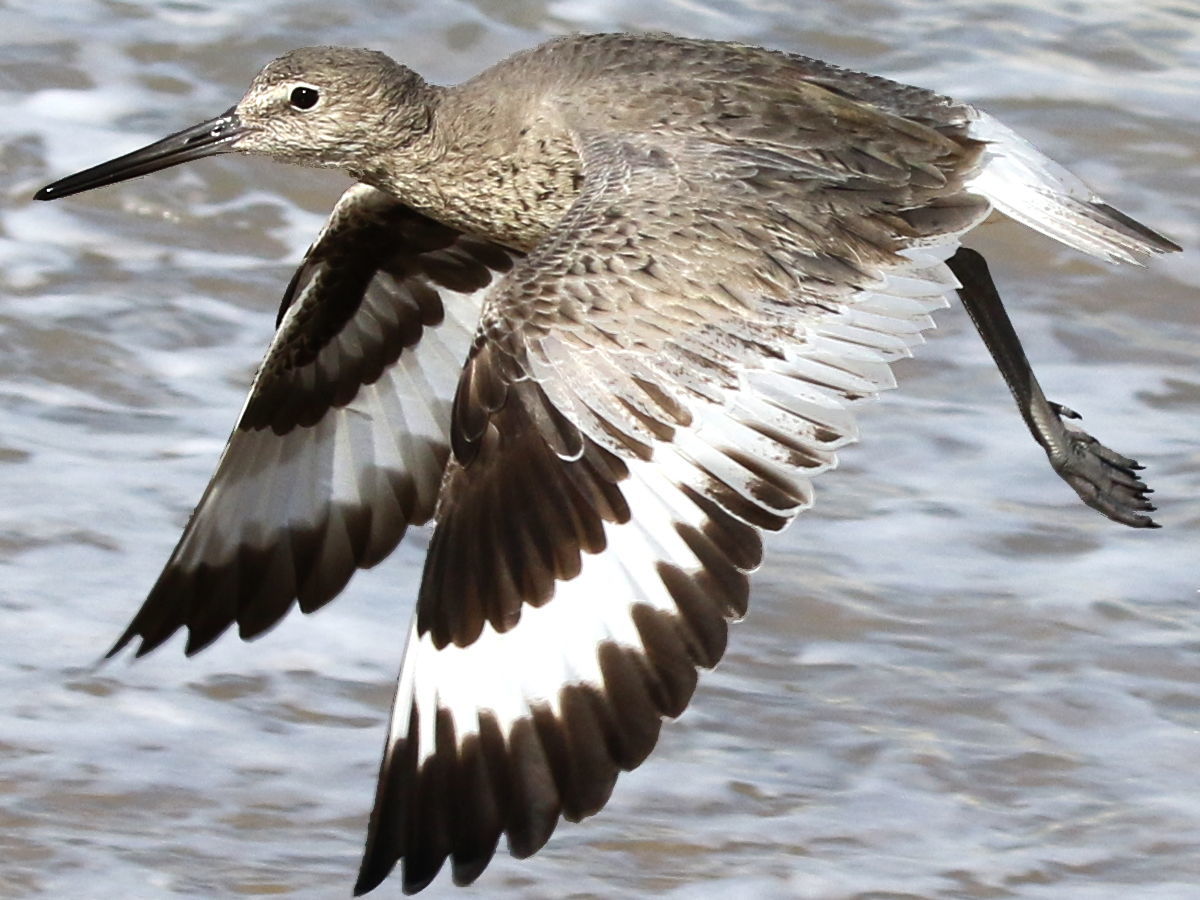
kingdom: Animalia
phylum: Chordata
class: Aves
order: Charadriiformes
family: Scolopacidae
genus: Tringa
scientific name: Tringa semipalmata
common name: Willet
